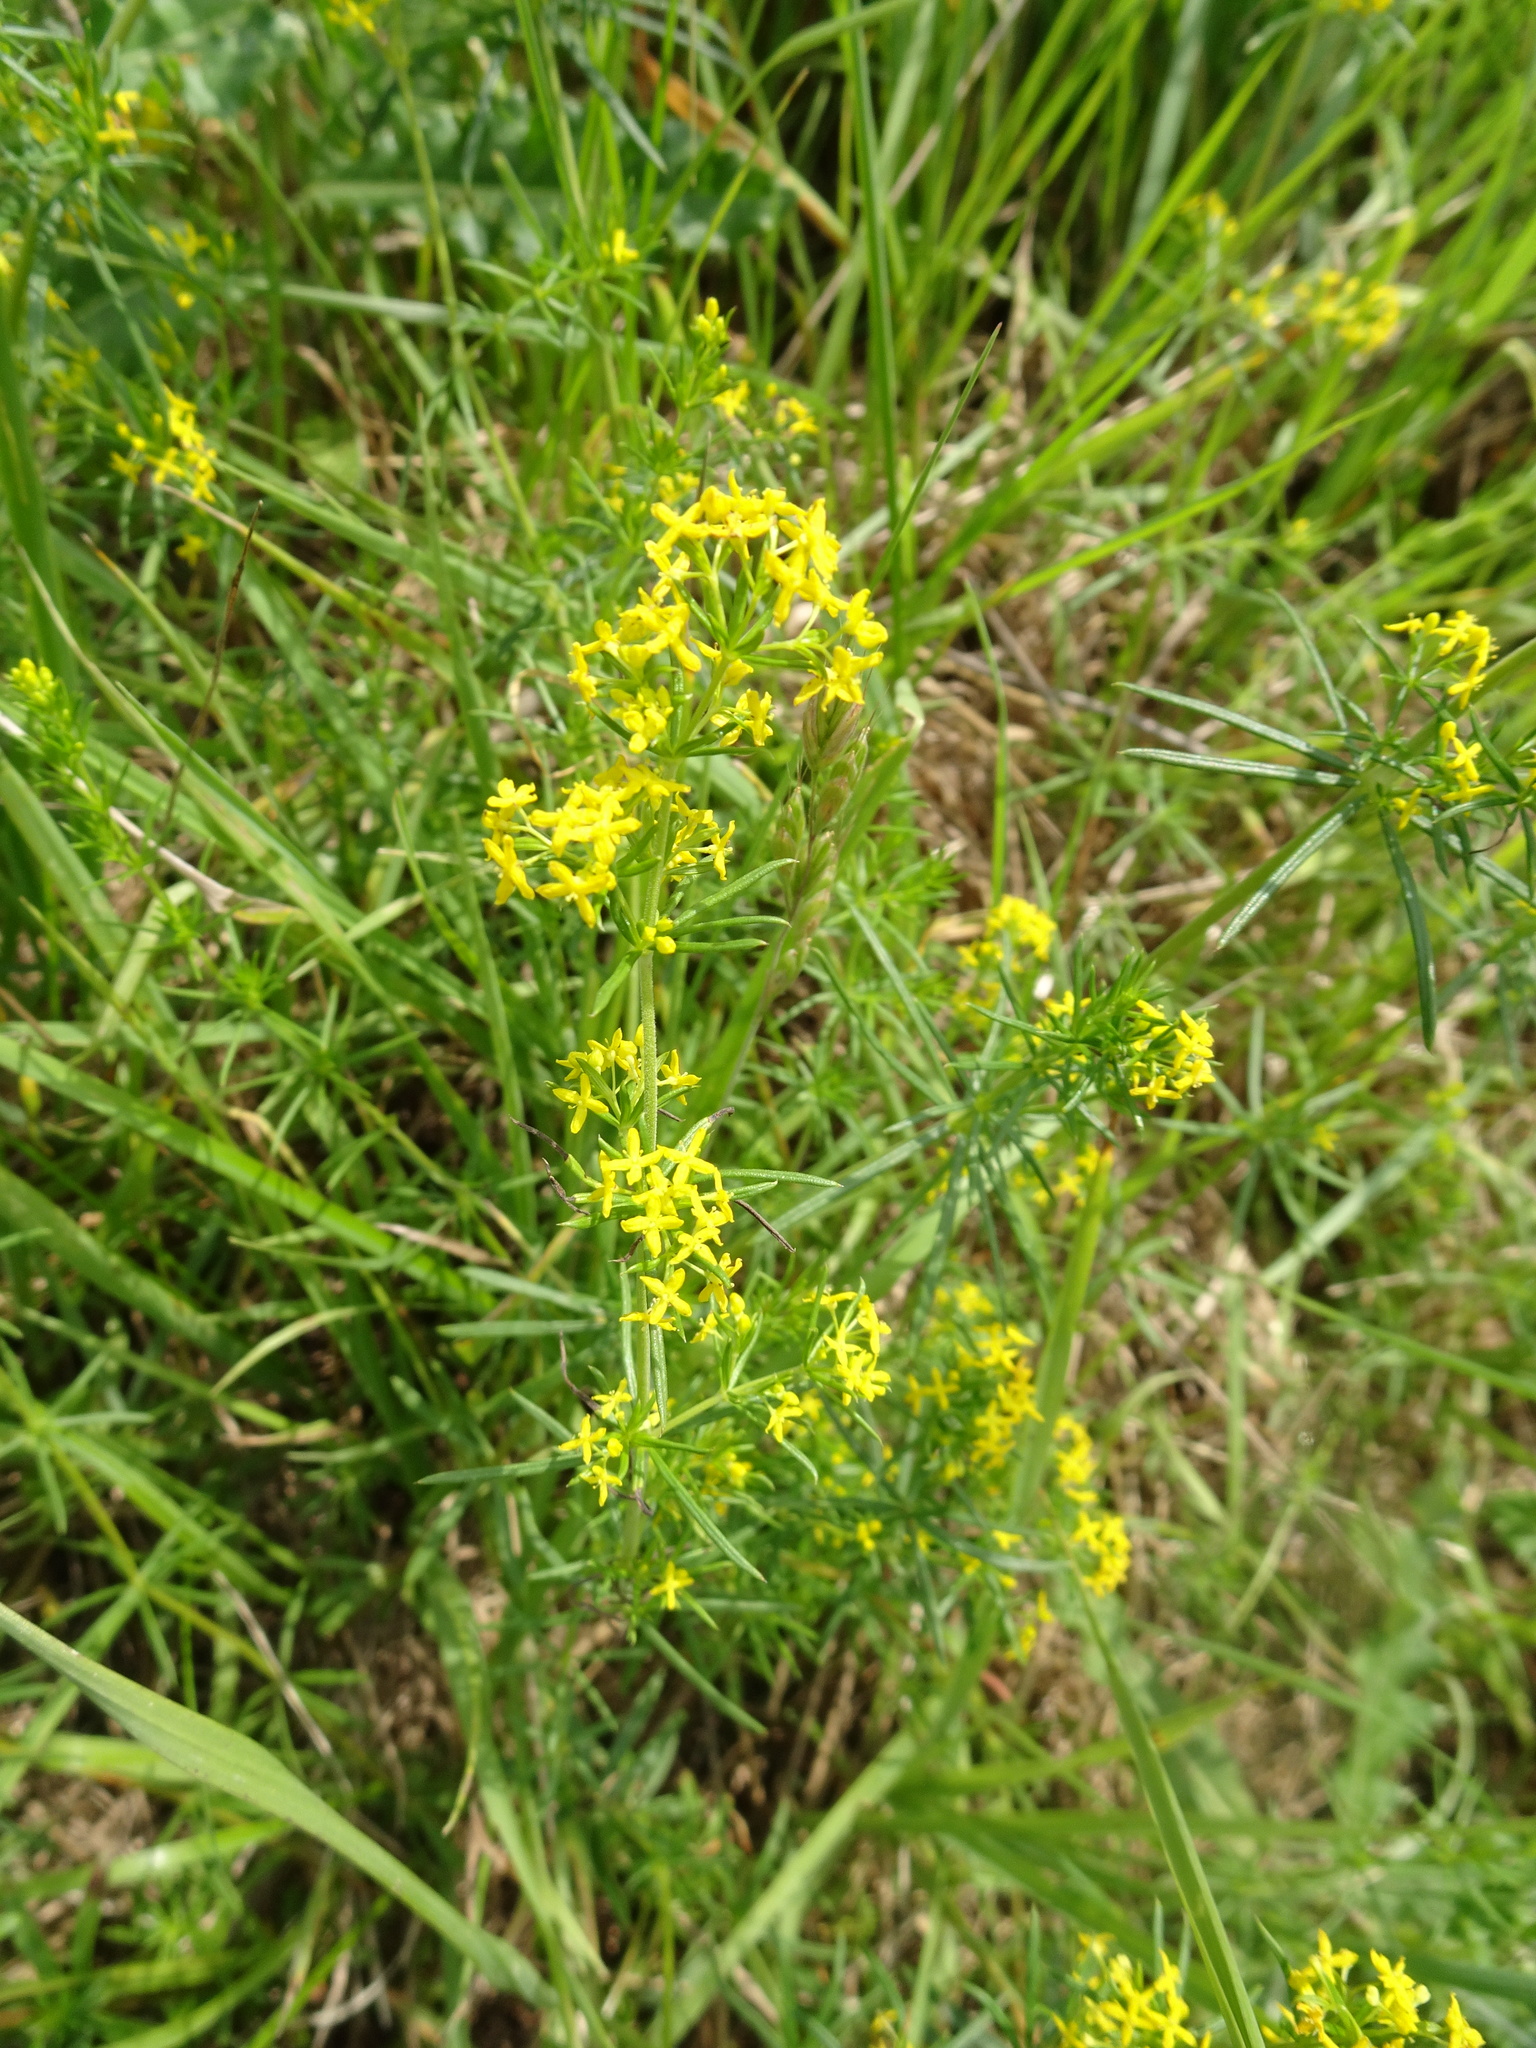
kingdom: Plantae
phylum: Tracheophyta
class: Magnoliopsida
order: Gentianales
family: Rubiaceae
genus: Galium
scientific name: Galium verum
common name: Lady's bedstraw
